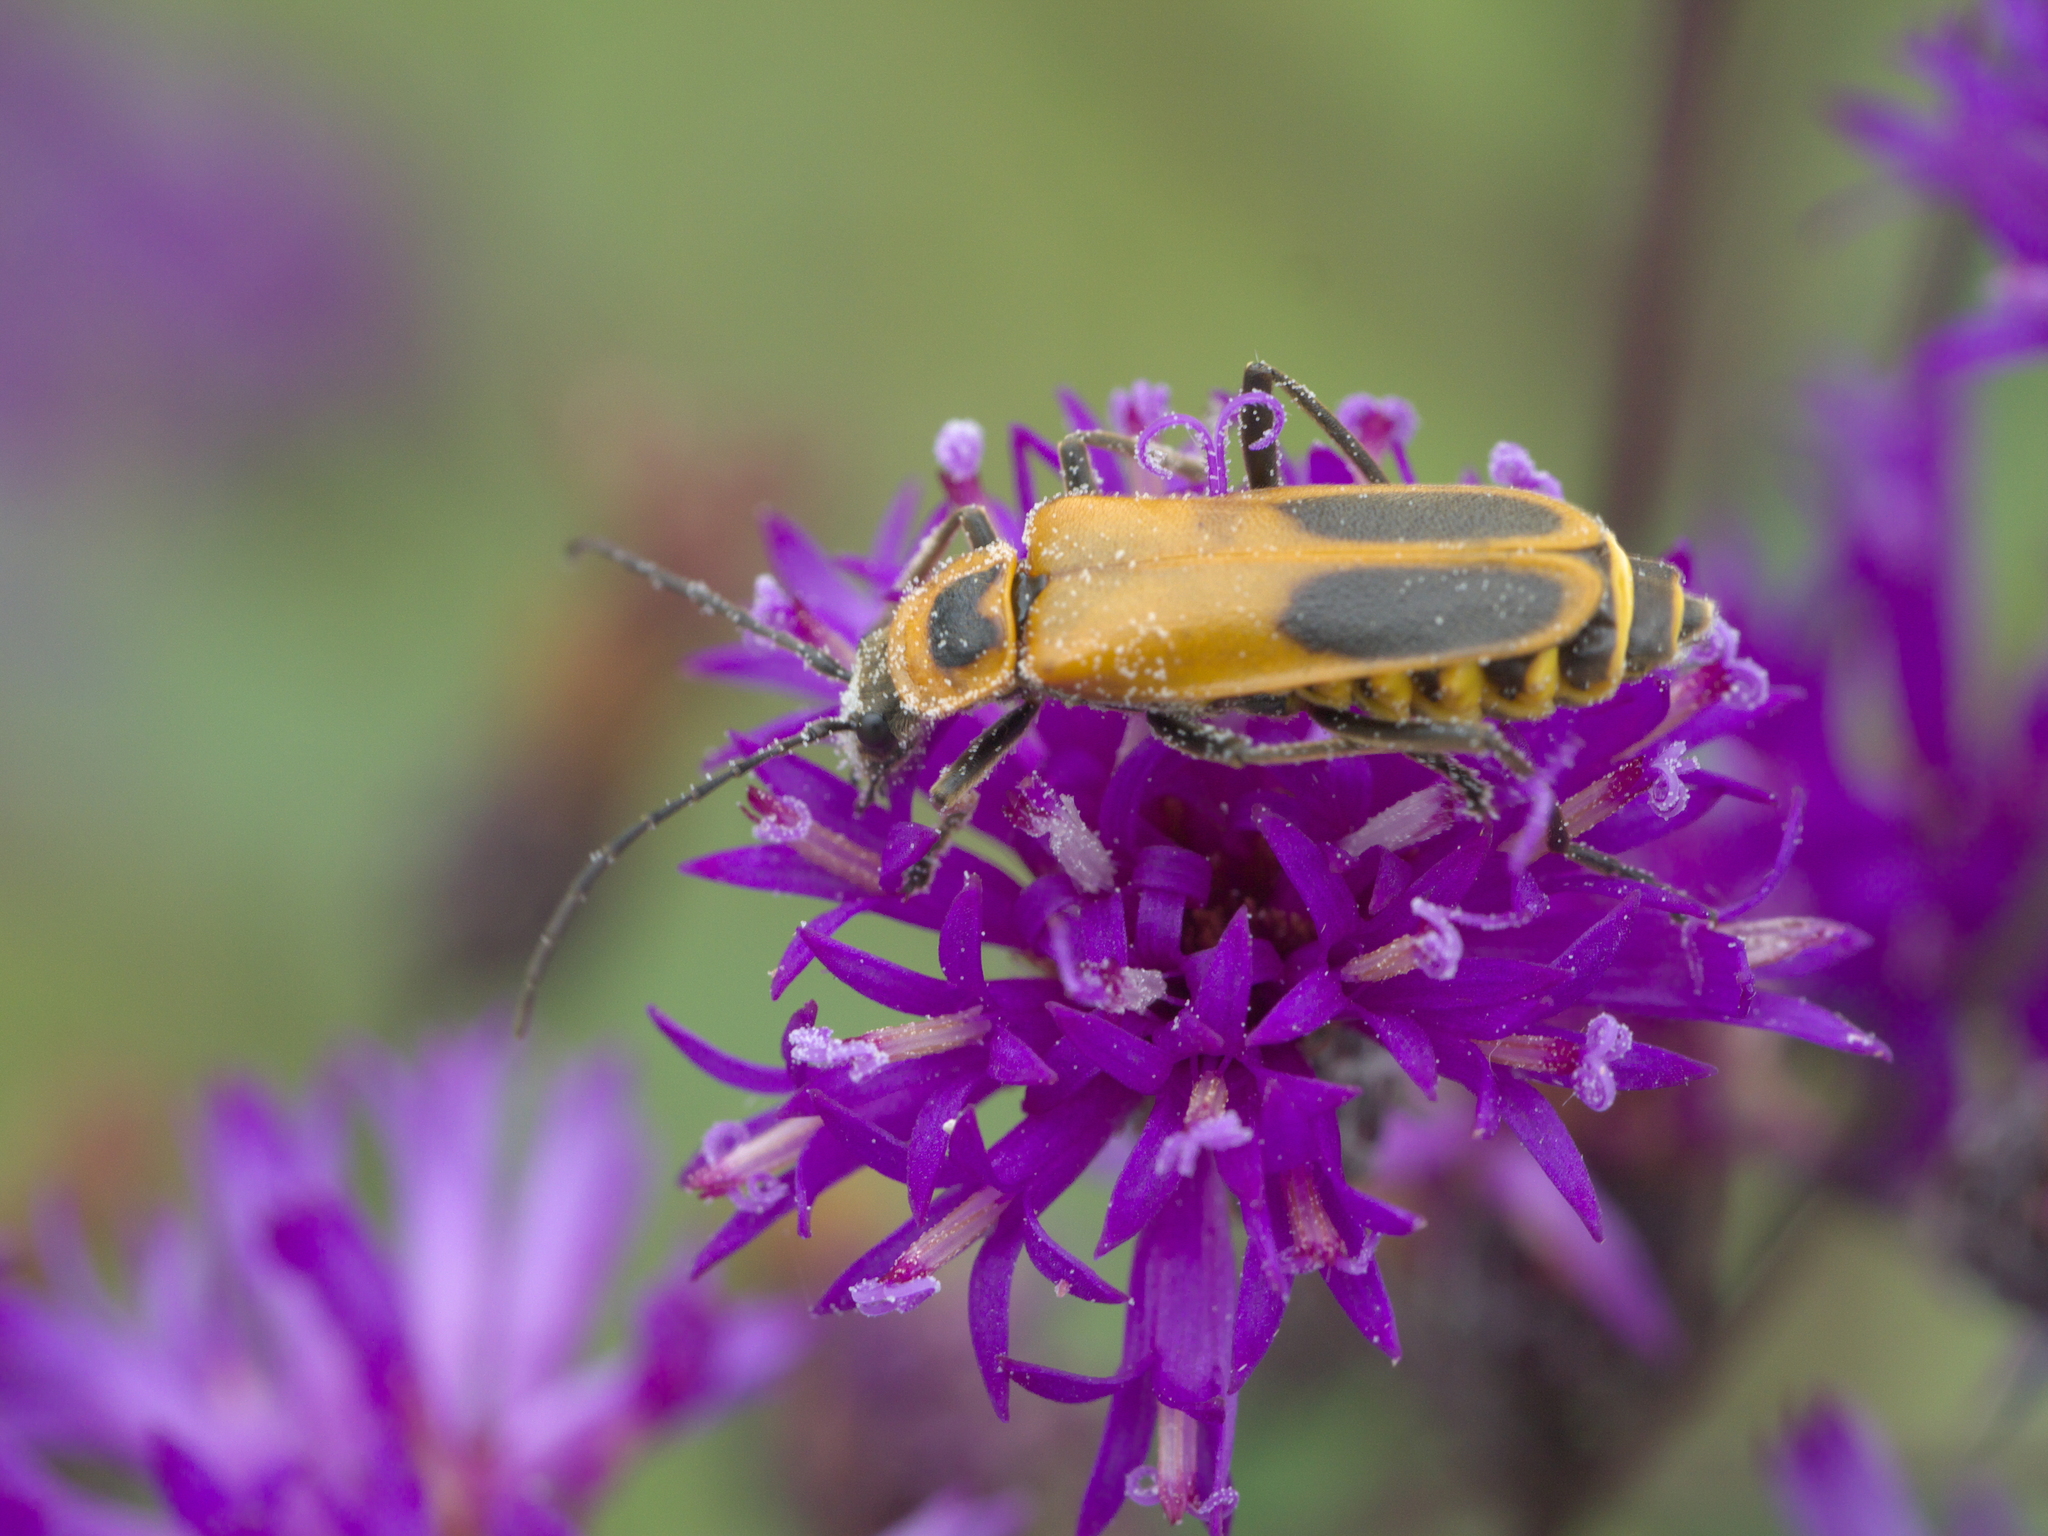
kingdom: Animalia
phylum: Arthropoda
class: Insecta
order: Coleoptera
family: Cantharidae
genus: Chauliognathus
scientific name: Chauliognathus pensylvanicus
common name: Goldenrod soldier beetle
